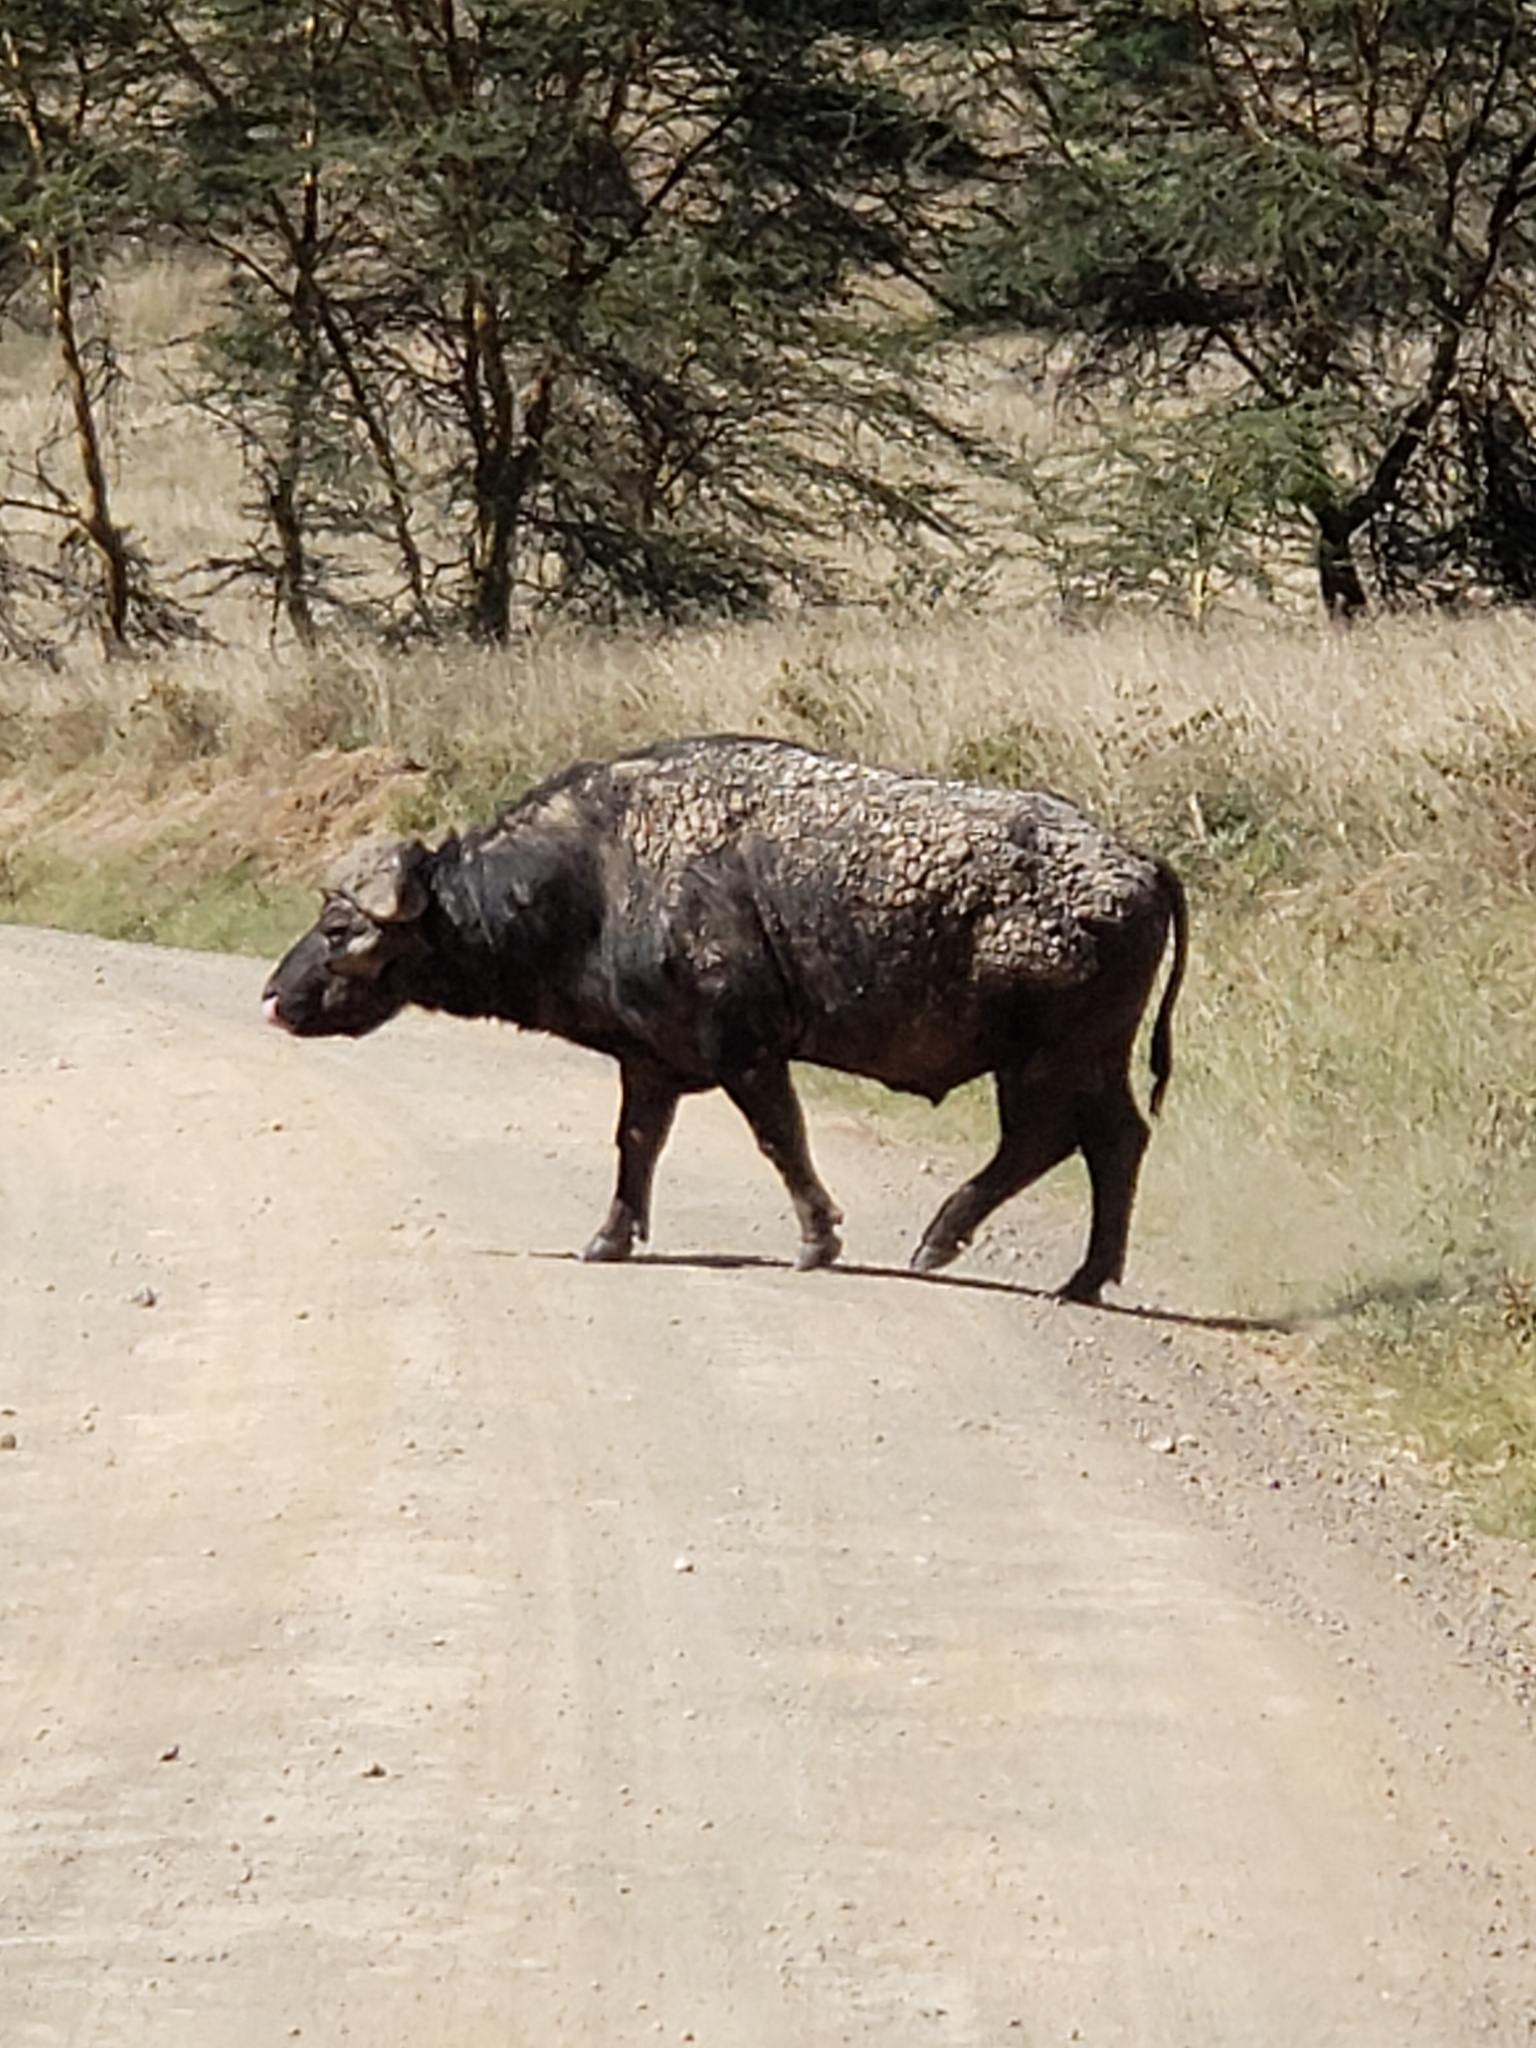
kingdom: Animalia
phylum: Chordata
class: Mammalia
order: Artiodactyla
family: Bovidae
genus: Syncerus
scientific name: Syncerus caffer
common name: African buffalo
